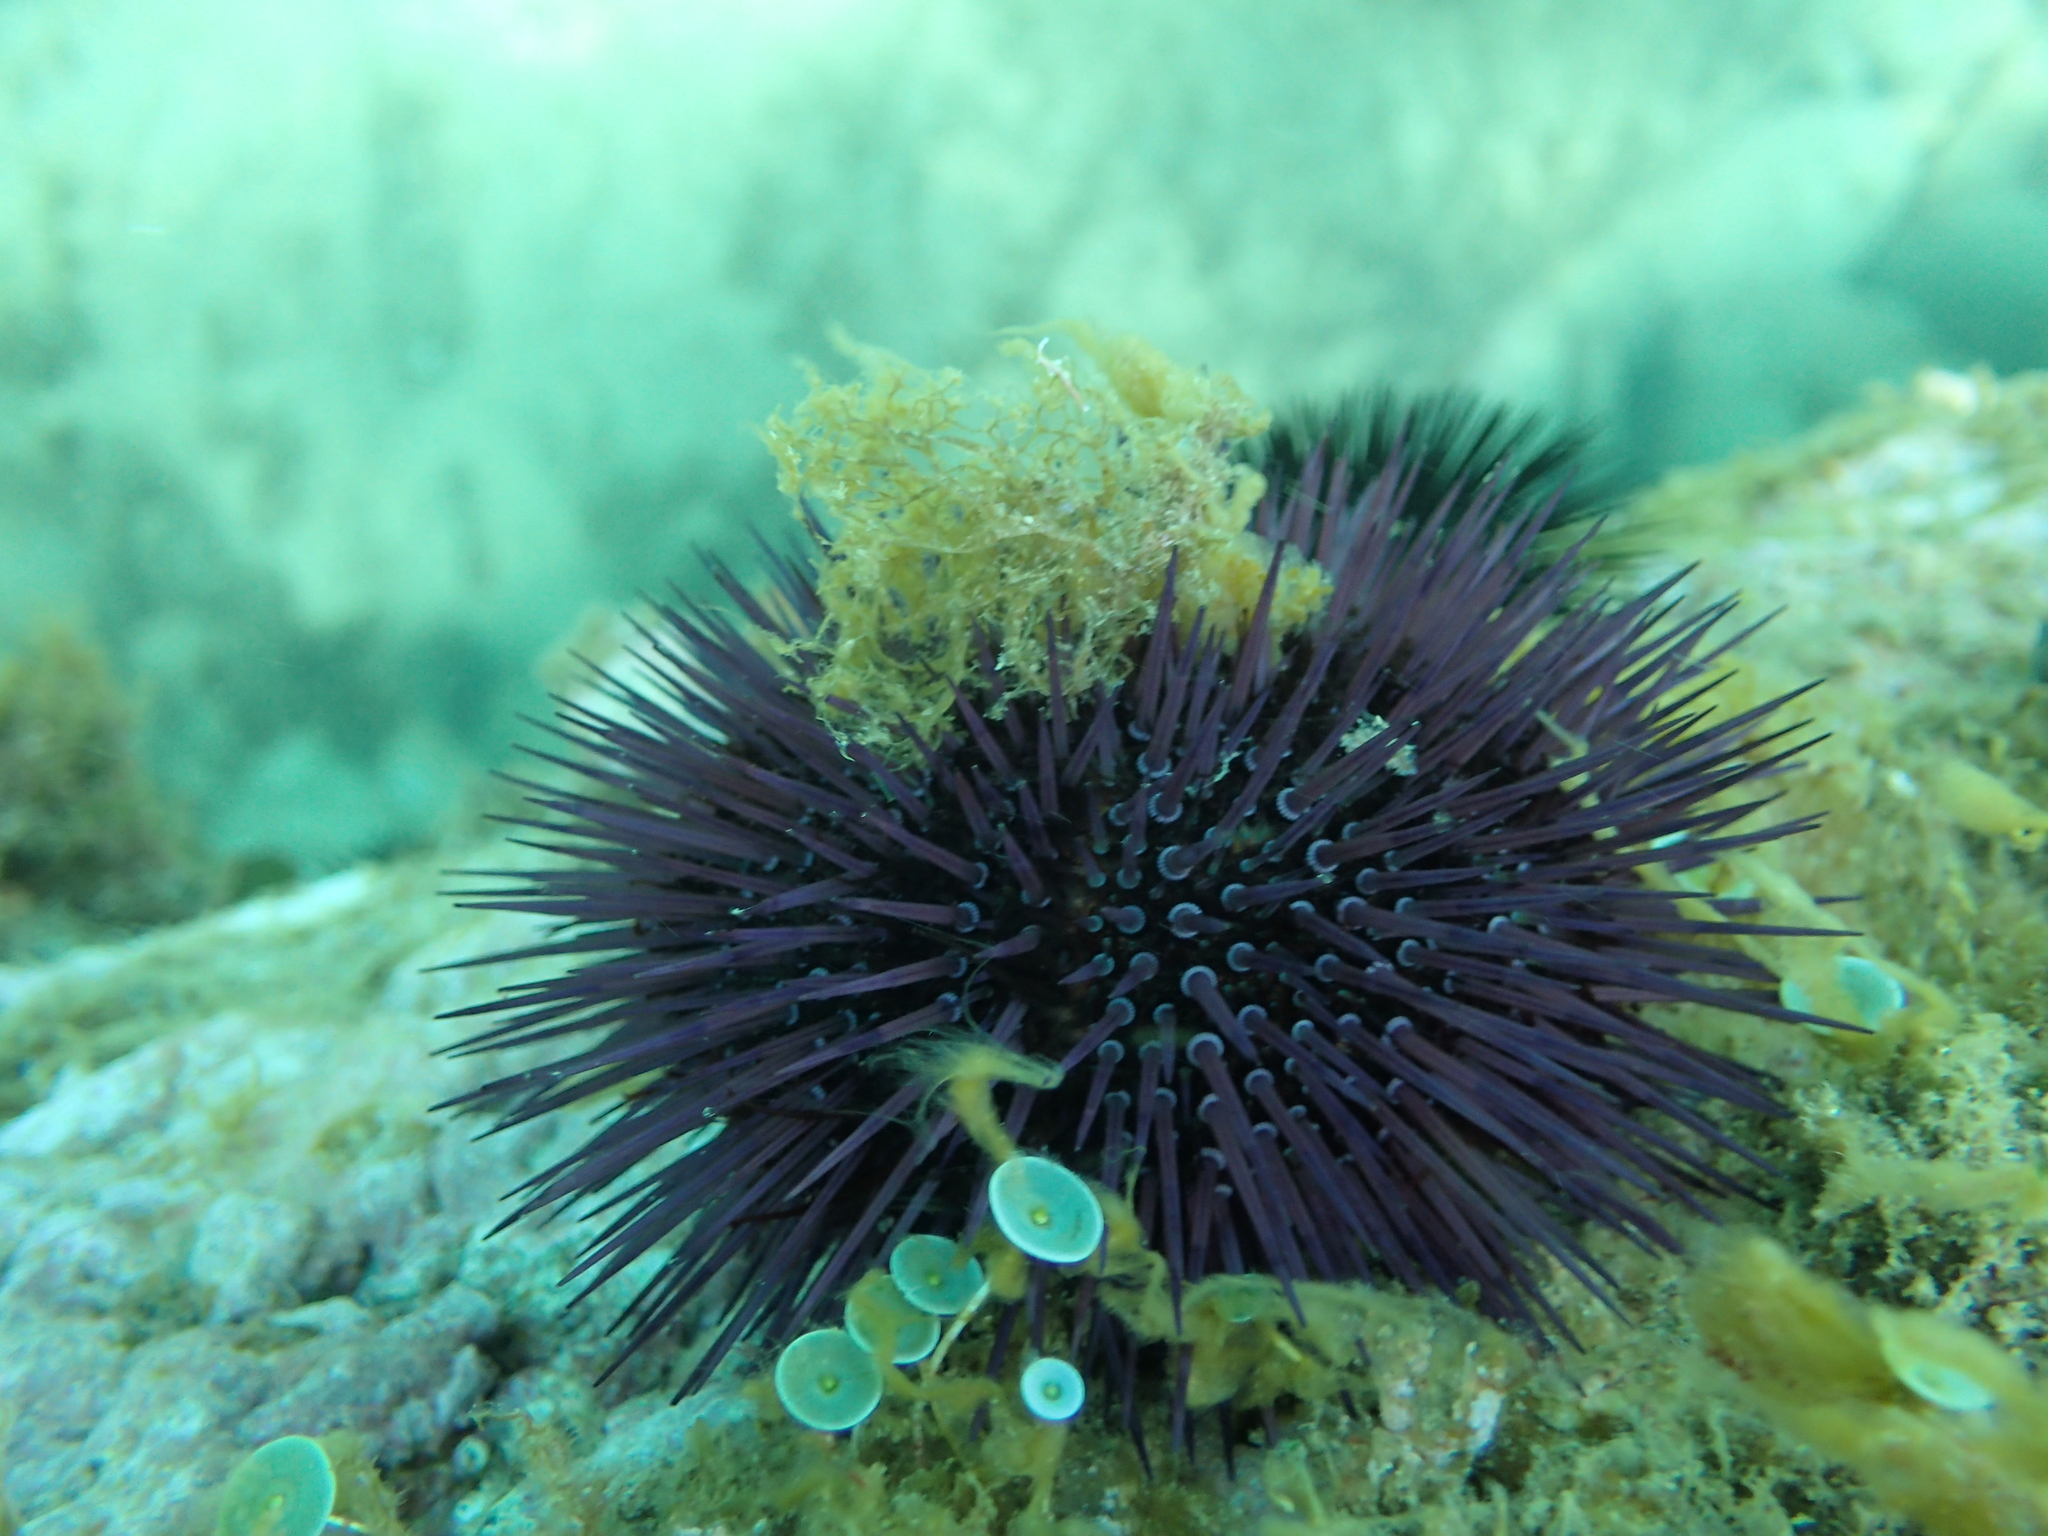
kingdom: Plantae
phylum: Chlorophyta
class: Ulvophyceae
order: Dasycladales
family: Polyphysaceae
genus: Acetabularia
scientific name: Acetabularia acetabulum
